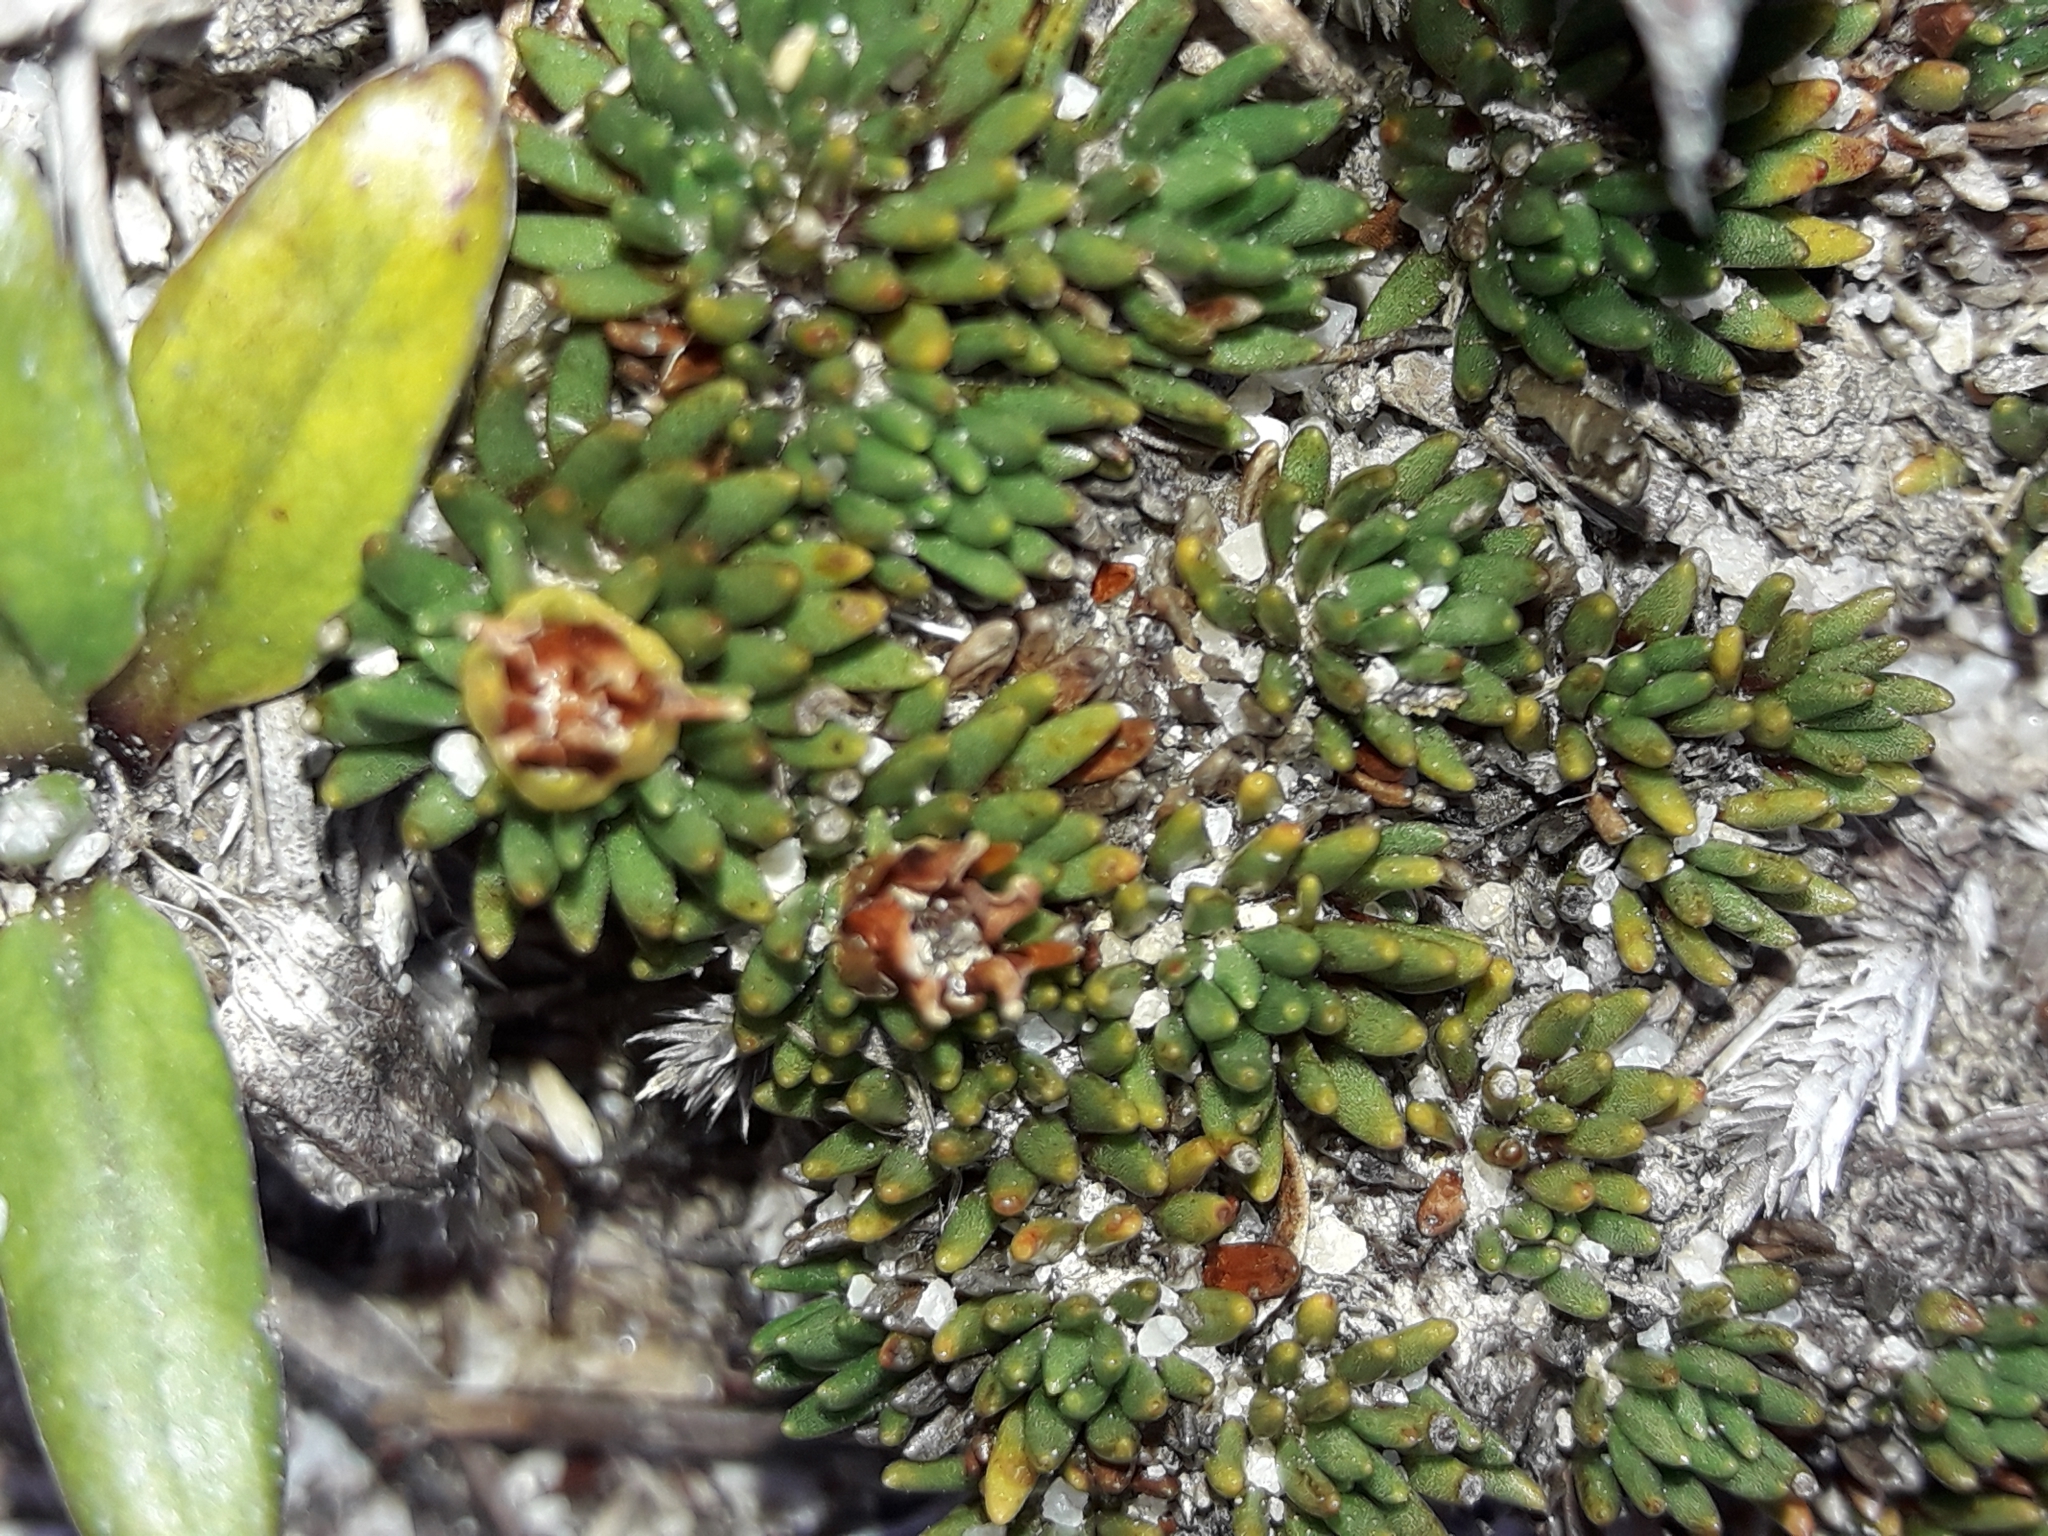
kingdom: Plantae
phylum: Tracheophyta
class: Magnoliopsida
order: Asterales
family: Stylidiaceae
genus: Donatia
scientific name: Donatia novae-zelandiae
